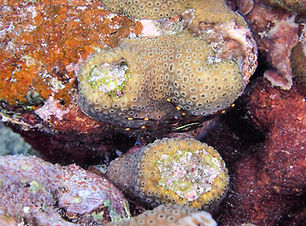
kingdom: Animalia
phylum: Arthropoda
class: Malacostraca
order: Decapoda
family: Percnidae
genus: Percnon
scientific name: Percnon gibbesi
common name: Nimble spray crab
